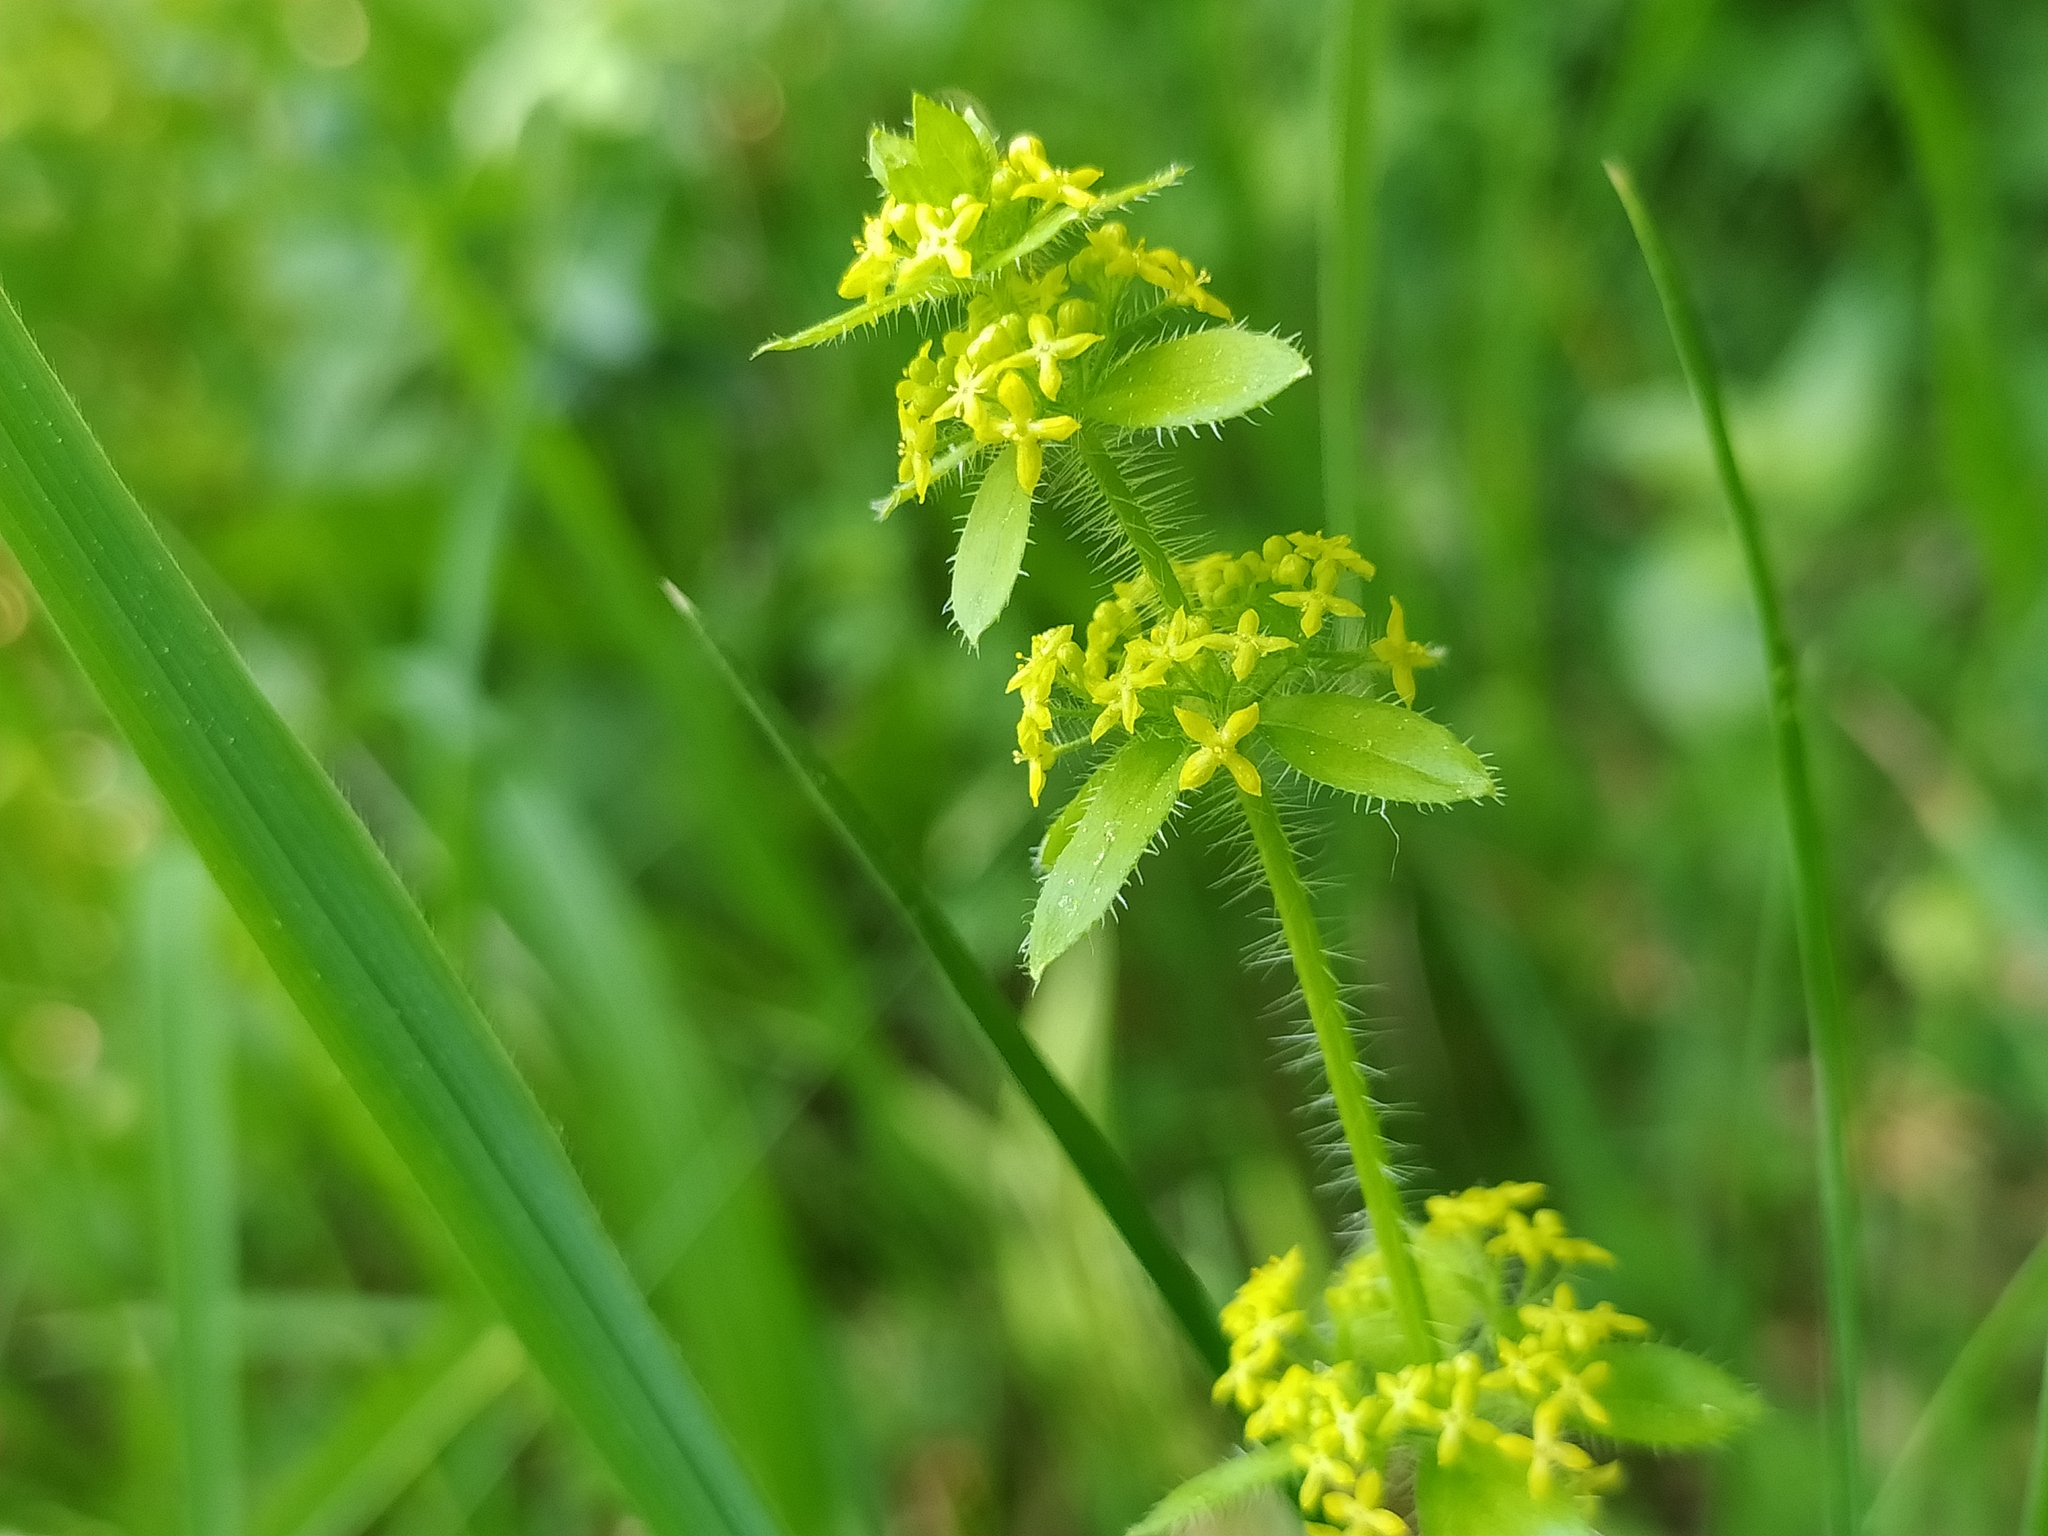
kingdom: Plantae
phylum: Tracheophyta
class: Magnoliopsida
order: Gentianales
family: Rubiaceae
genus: Cruciata
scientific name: Cruciata laevipes
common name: Crosswort
